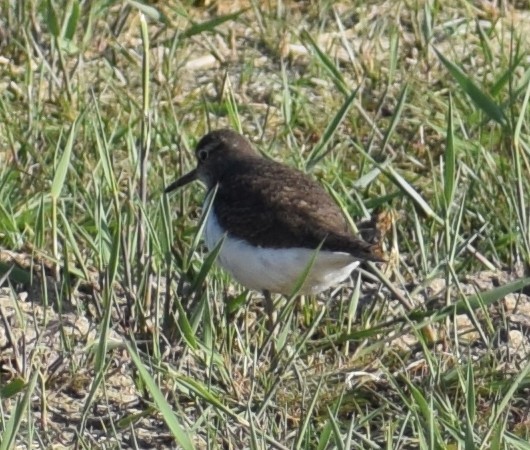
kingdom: Animalia
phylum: Chordata
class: Aves
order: Charadriiformes
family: Scolopacidae
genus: Actitis
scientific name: Actitis hypoleucos
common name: Common sandpiper
